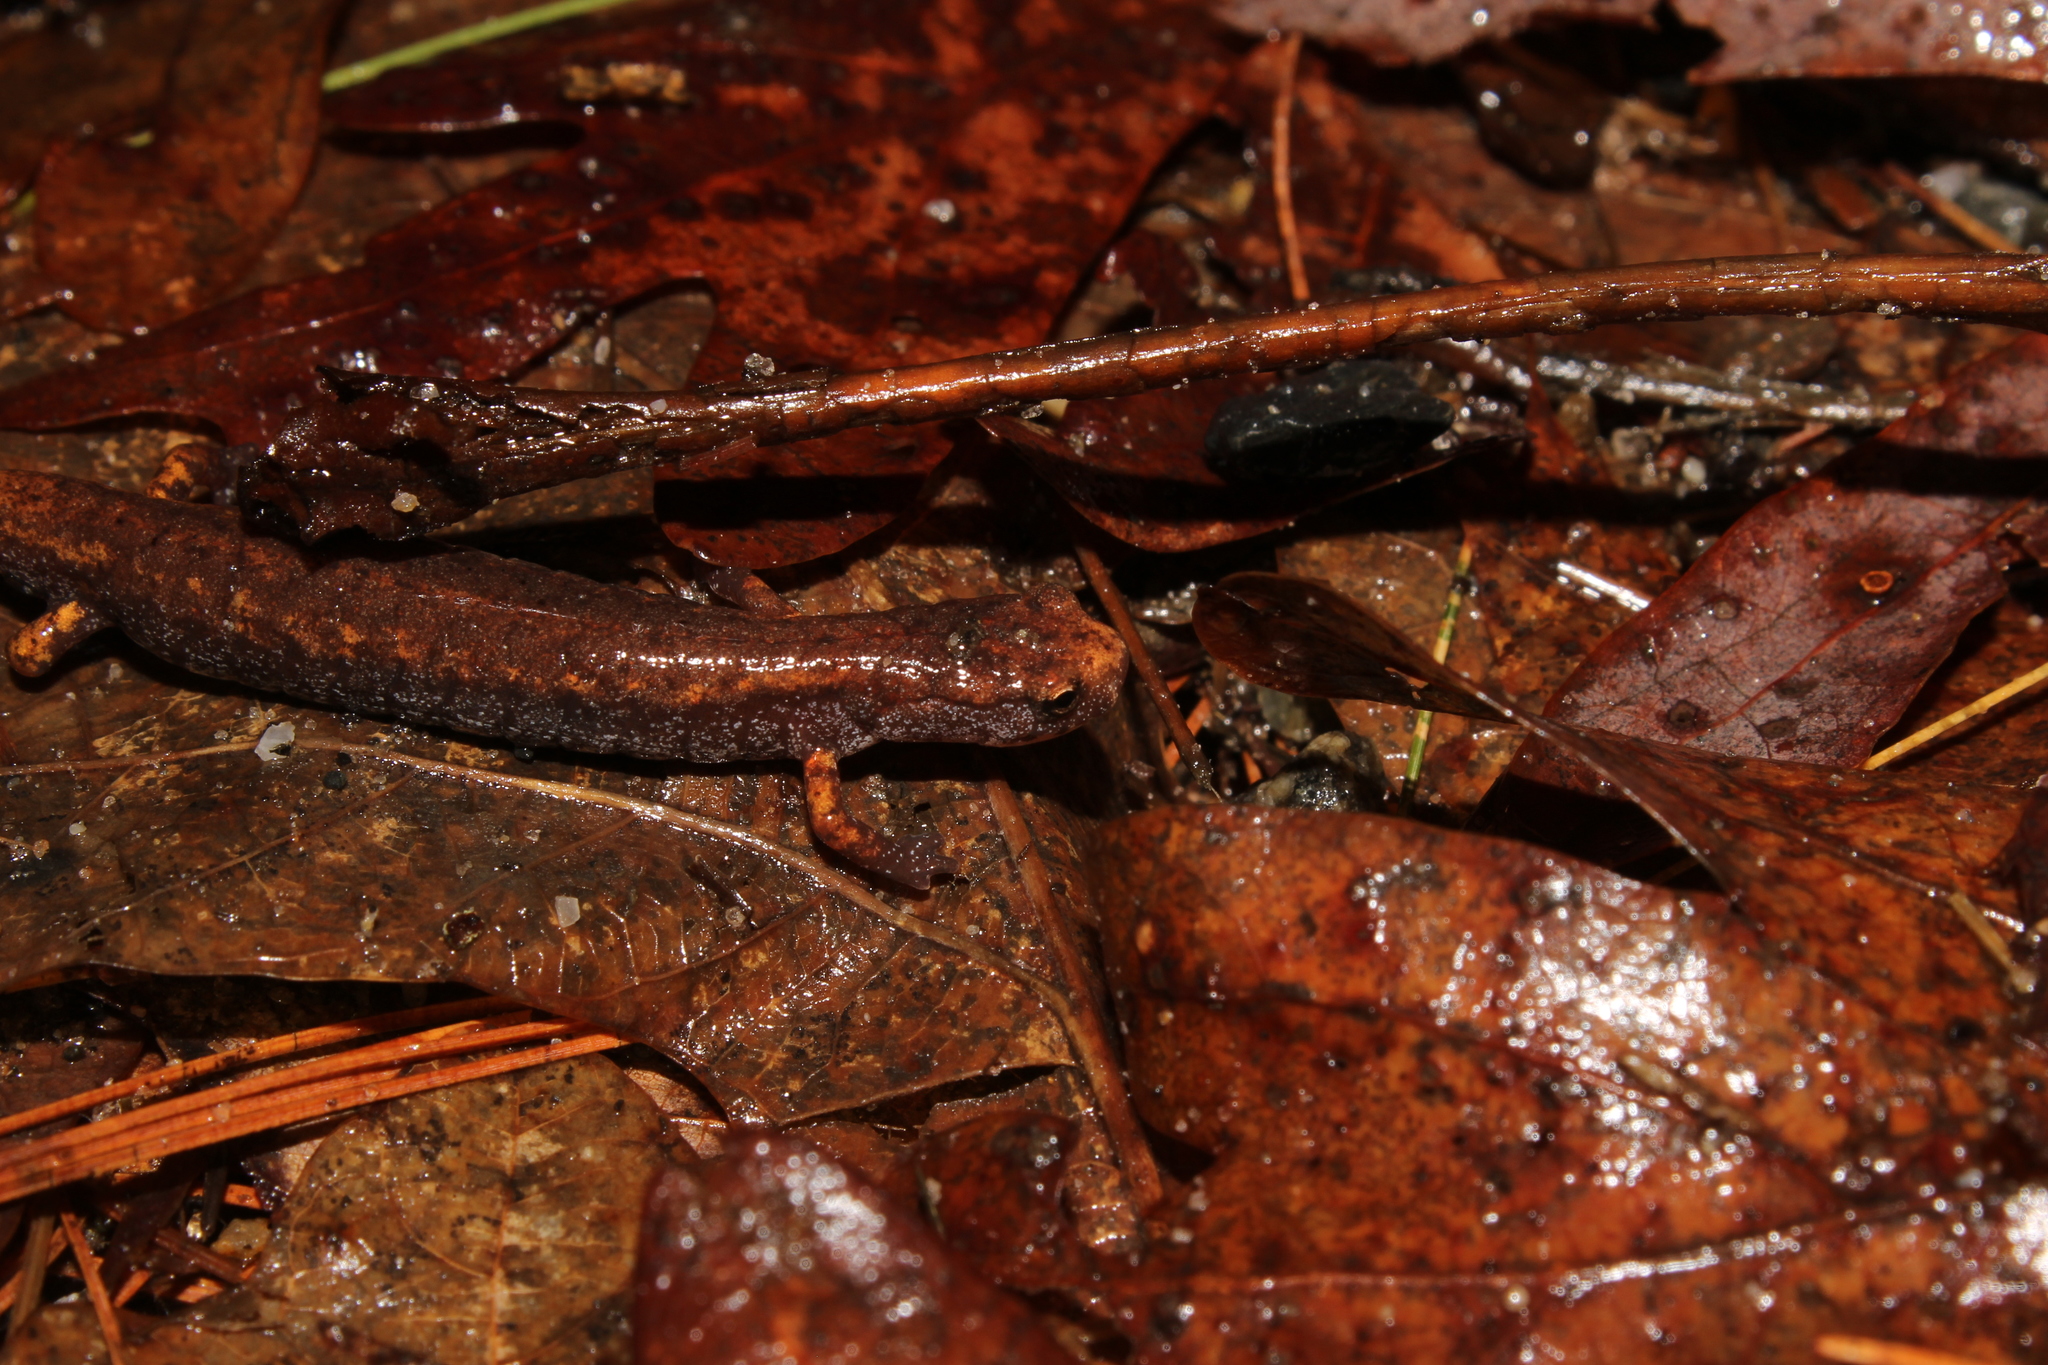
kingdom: Animalia
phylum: Chordata
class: Amphibia
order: Caudata
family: Plethodontidae
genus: Hemidactylium
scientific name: Hemidactylium scutatum
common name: Four-toed salamander
